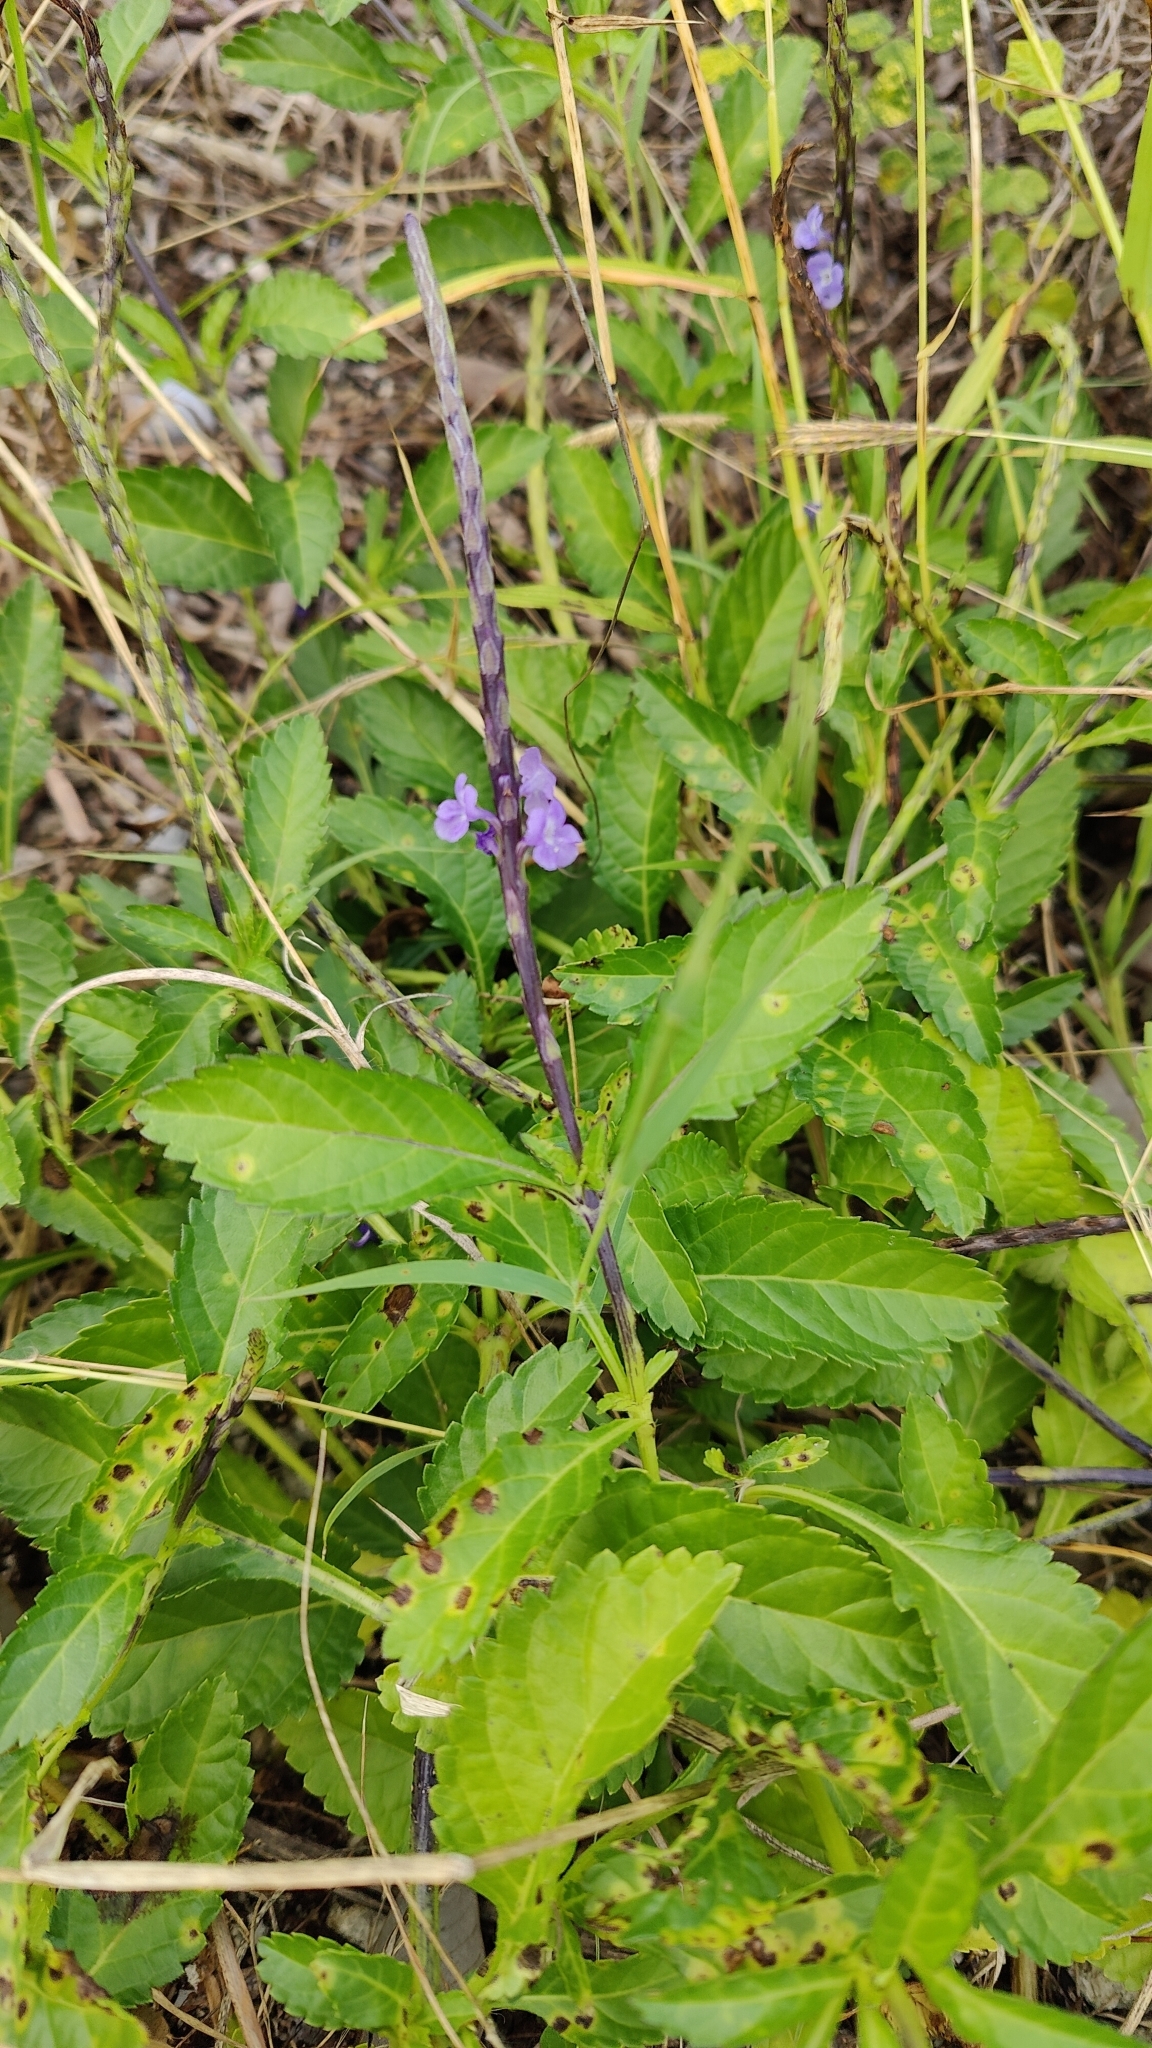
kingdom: Plantae
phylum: Tracheophyta
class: Magnoliopsida
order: Lamiales
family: Verbenaceae
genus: Stachytarpheta
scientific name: Stachytarpheta jamaicensis
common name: Light-blue snakeweed
